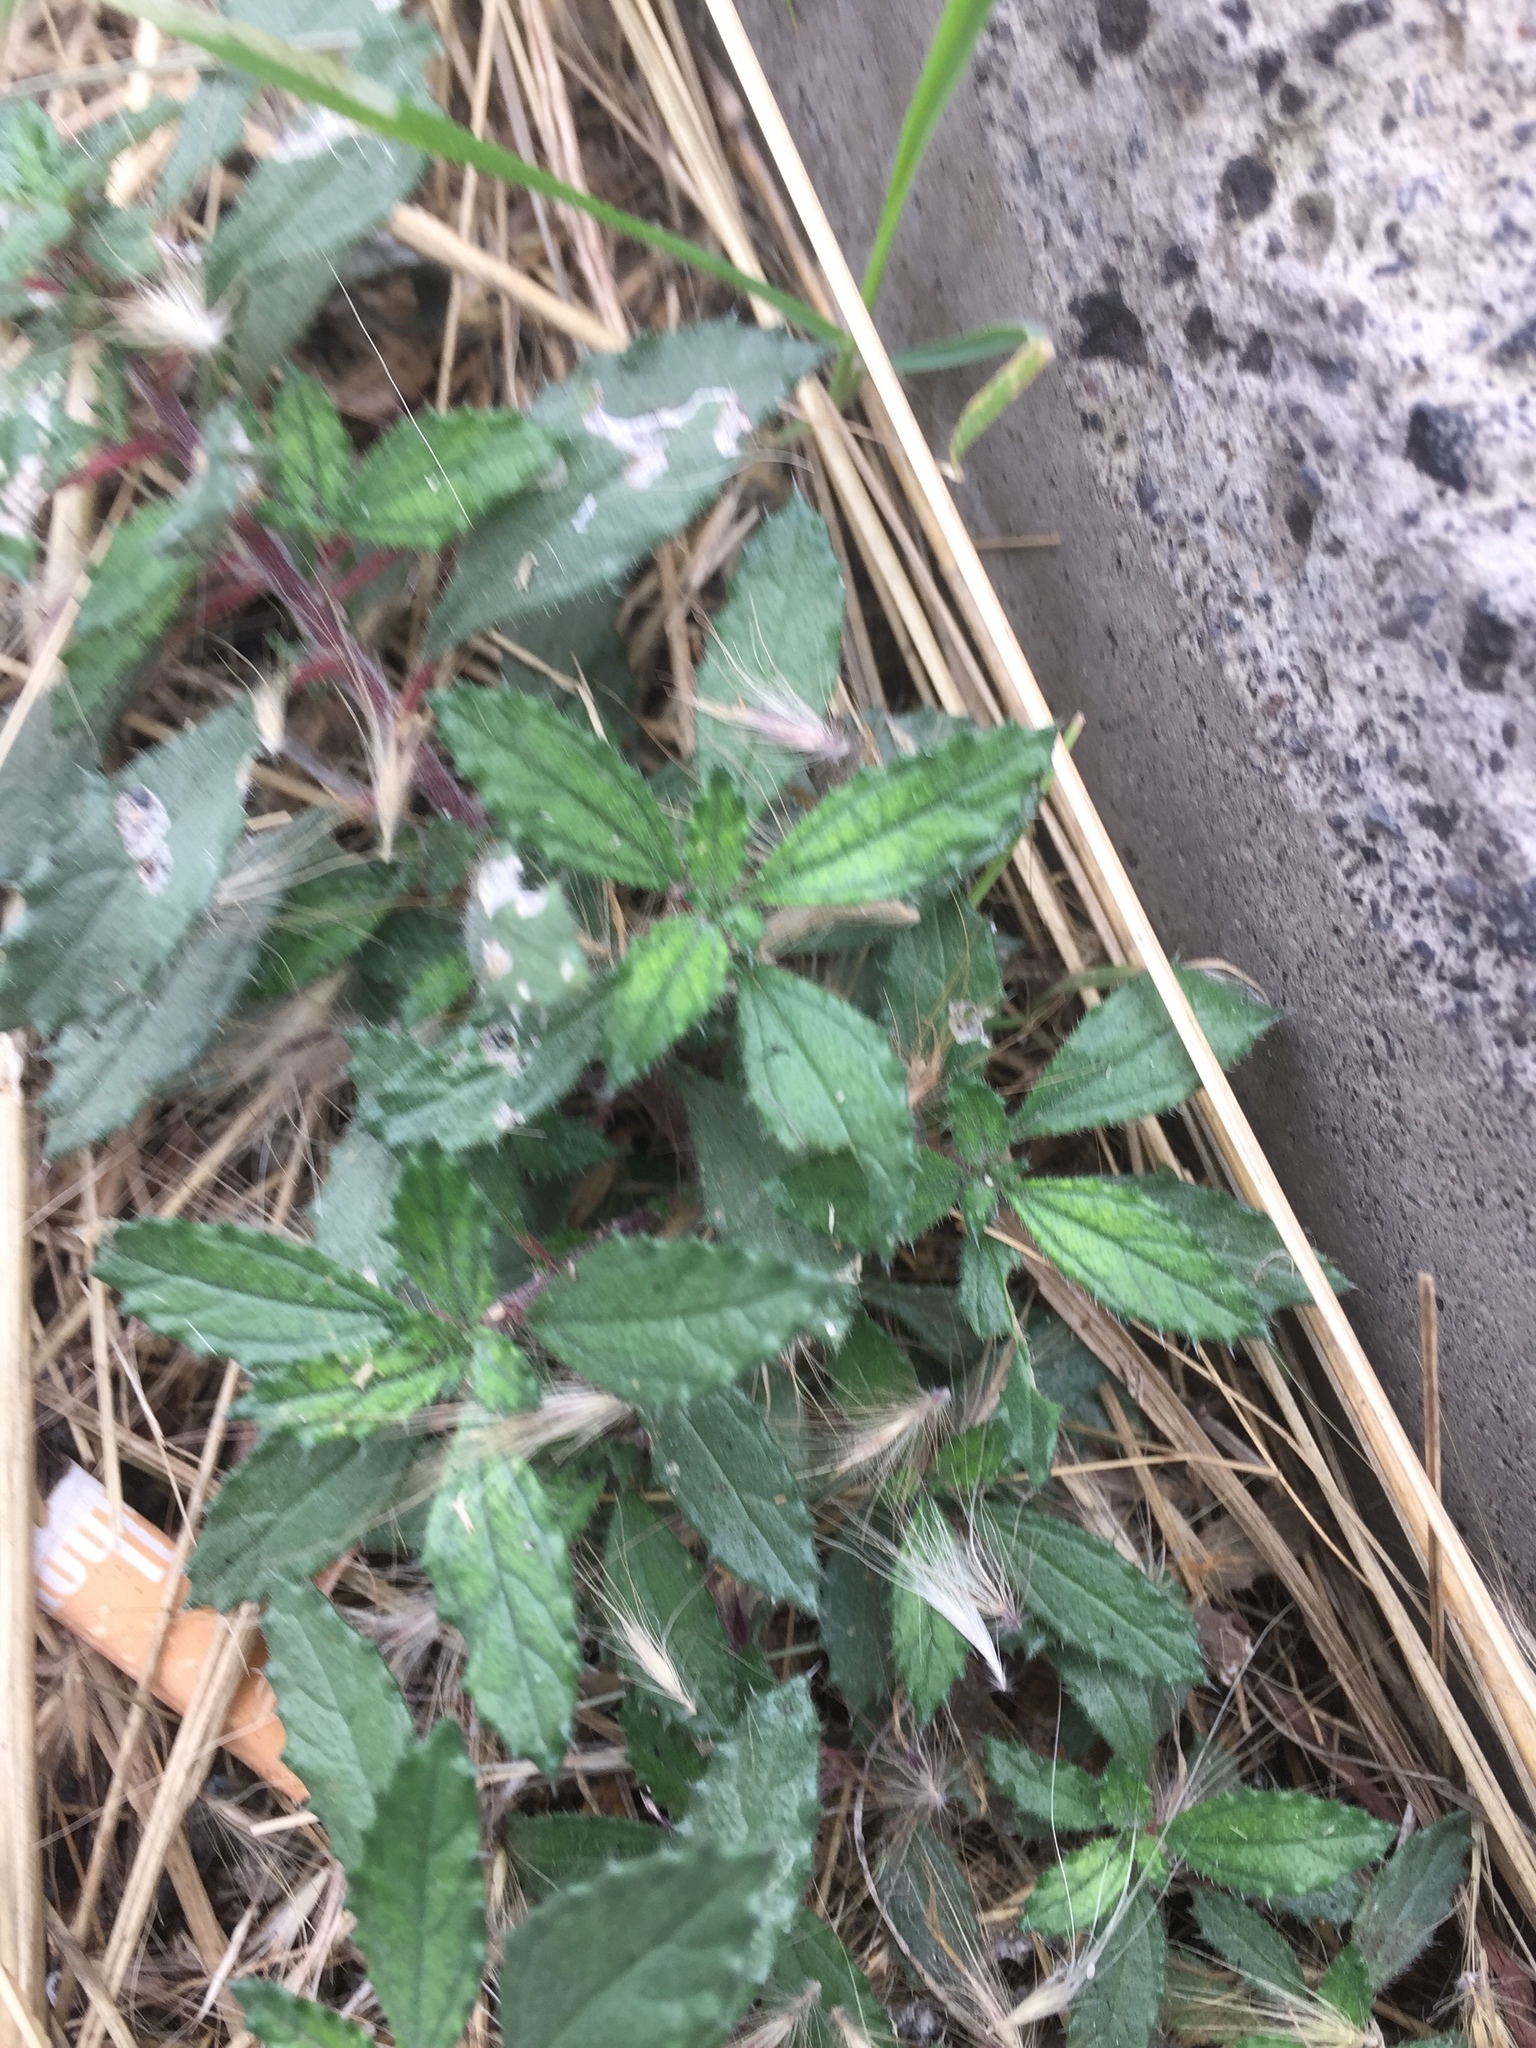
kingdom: Plantae
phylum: Tracheophyta
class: Magnoliopsida
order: Rosales
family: Urticaceae
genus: Forsskaolea
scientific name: Forsskaolea angustifolia
